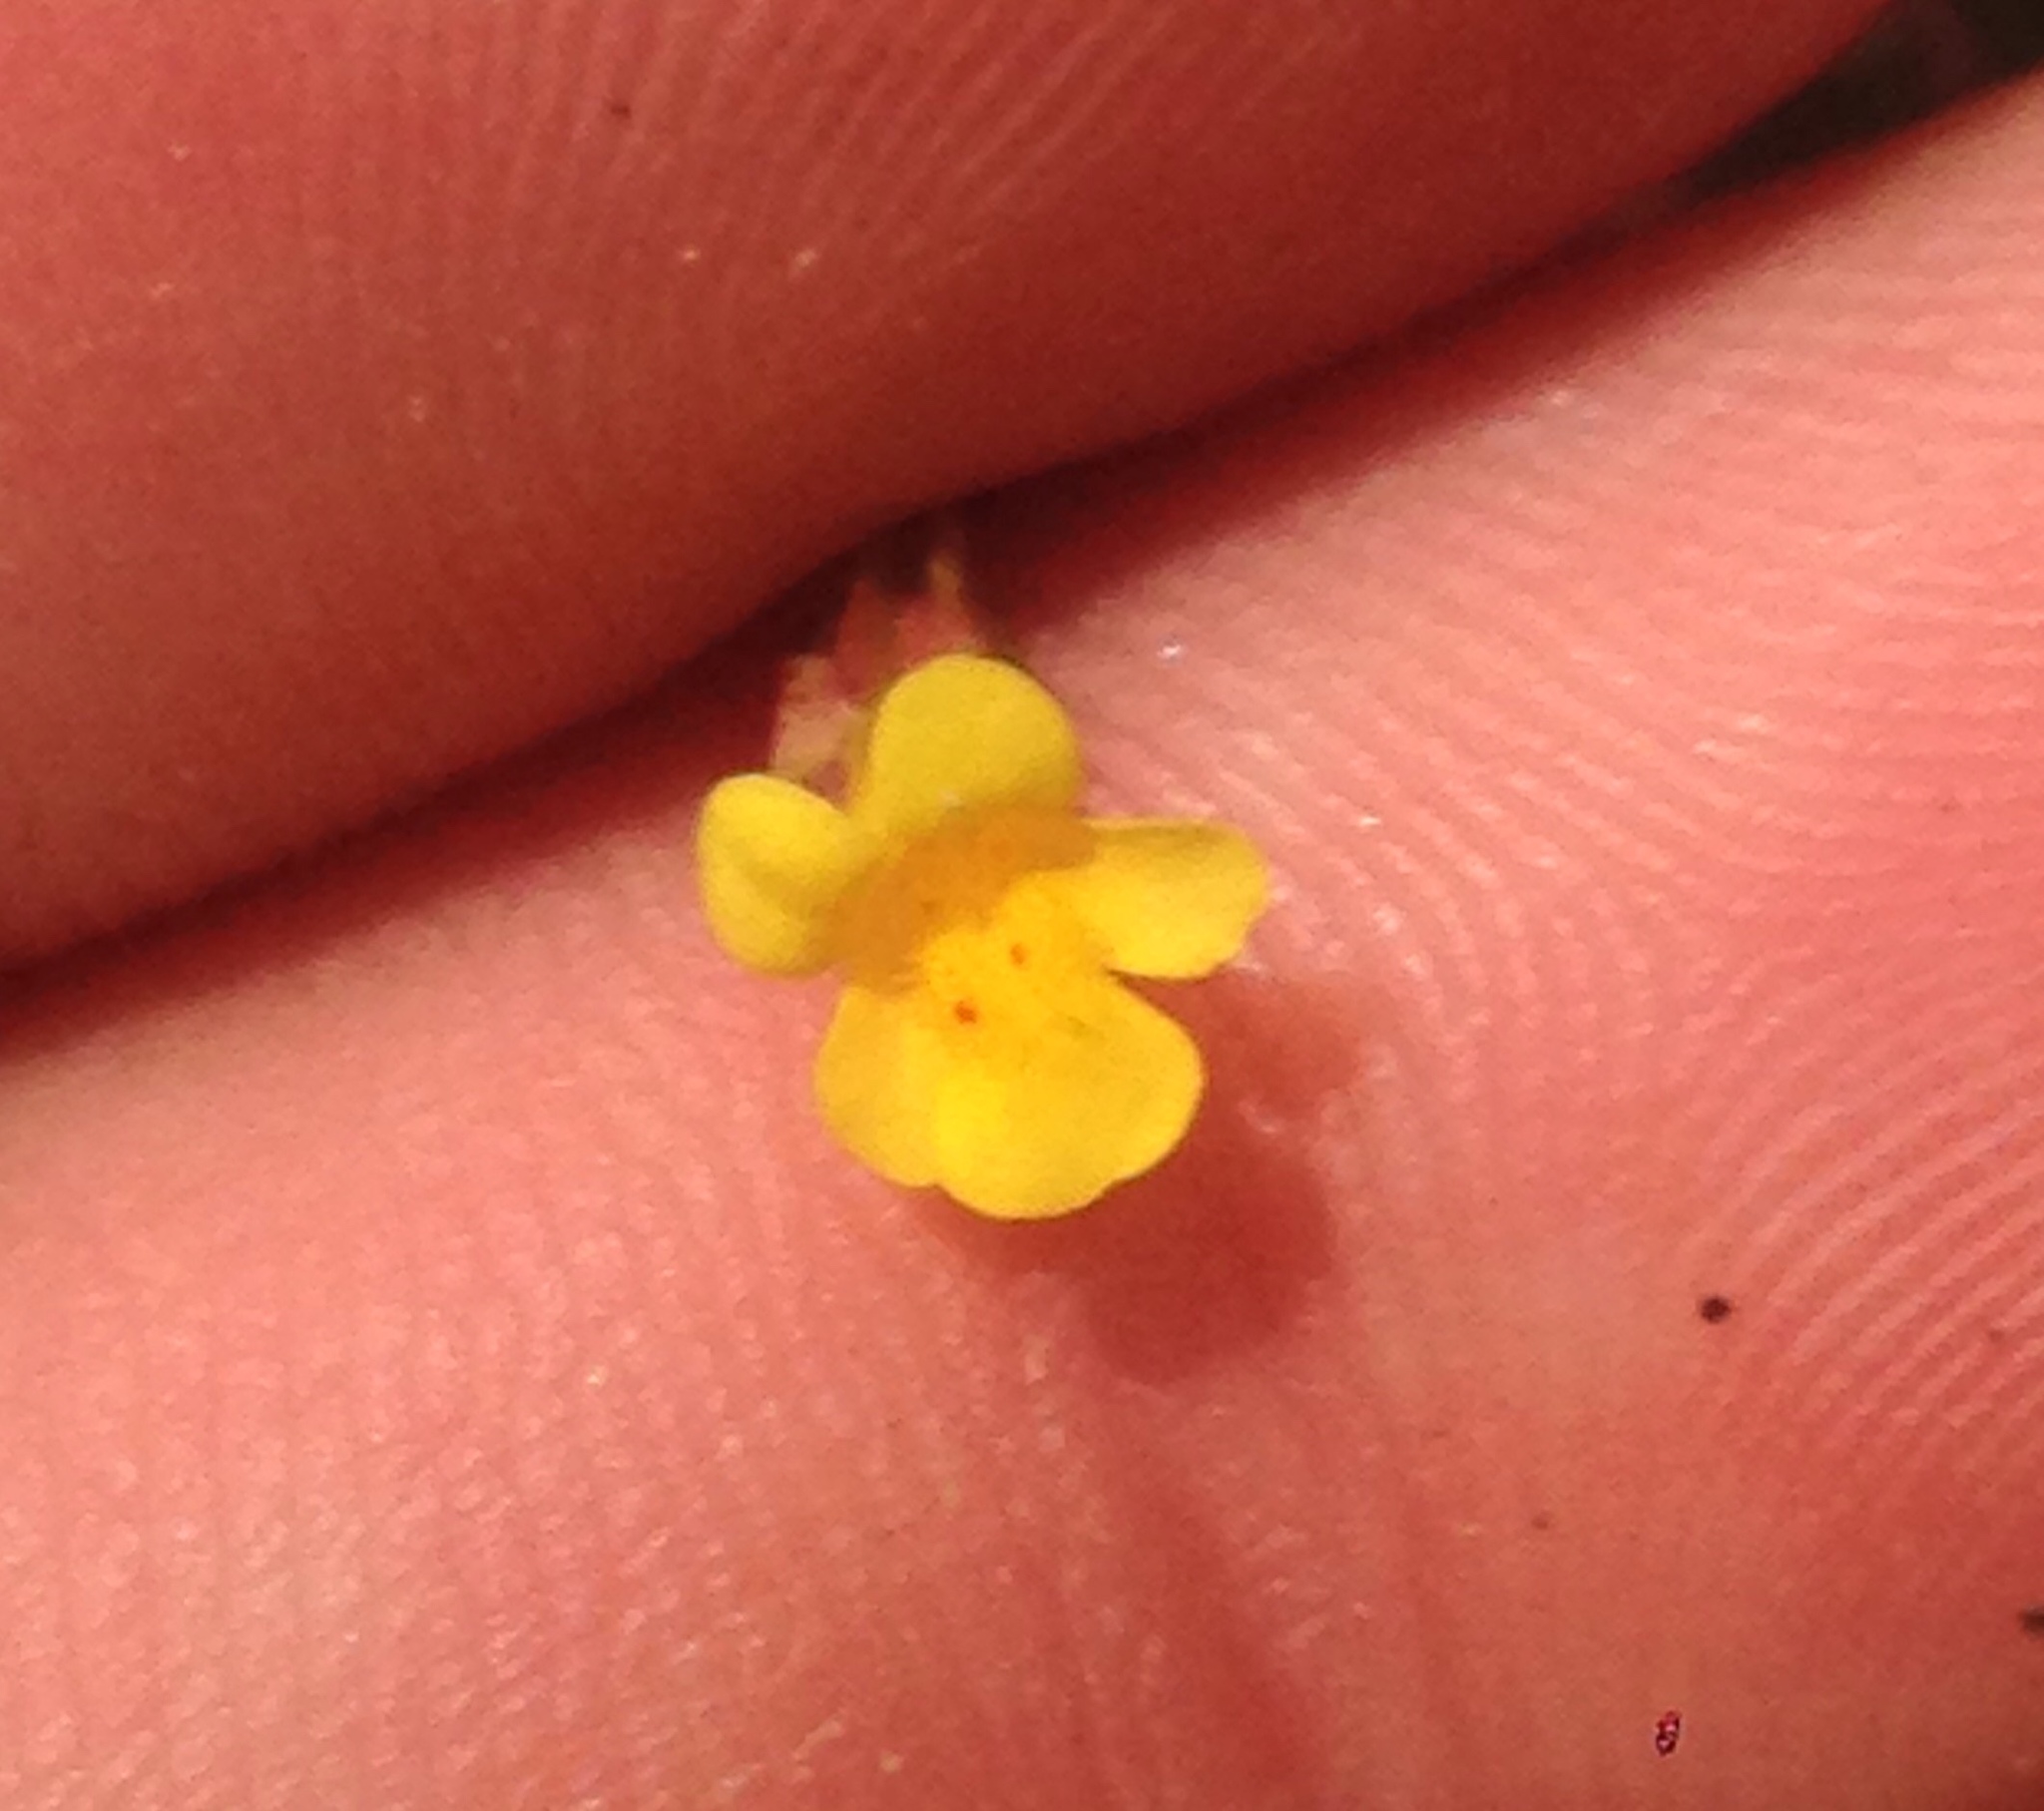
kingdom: Plantae
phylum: Tracheophyta
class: Magnoliopsida
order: Lamiales
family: Phrymaceae
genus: Erythranthe
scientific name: Erythranthe laciniata
